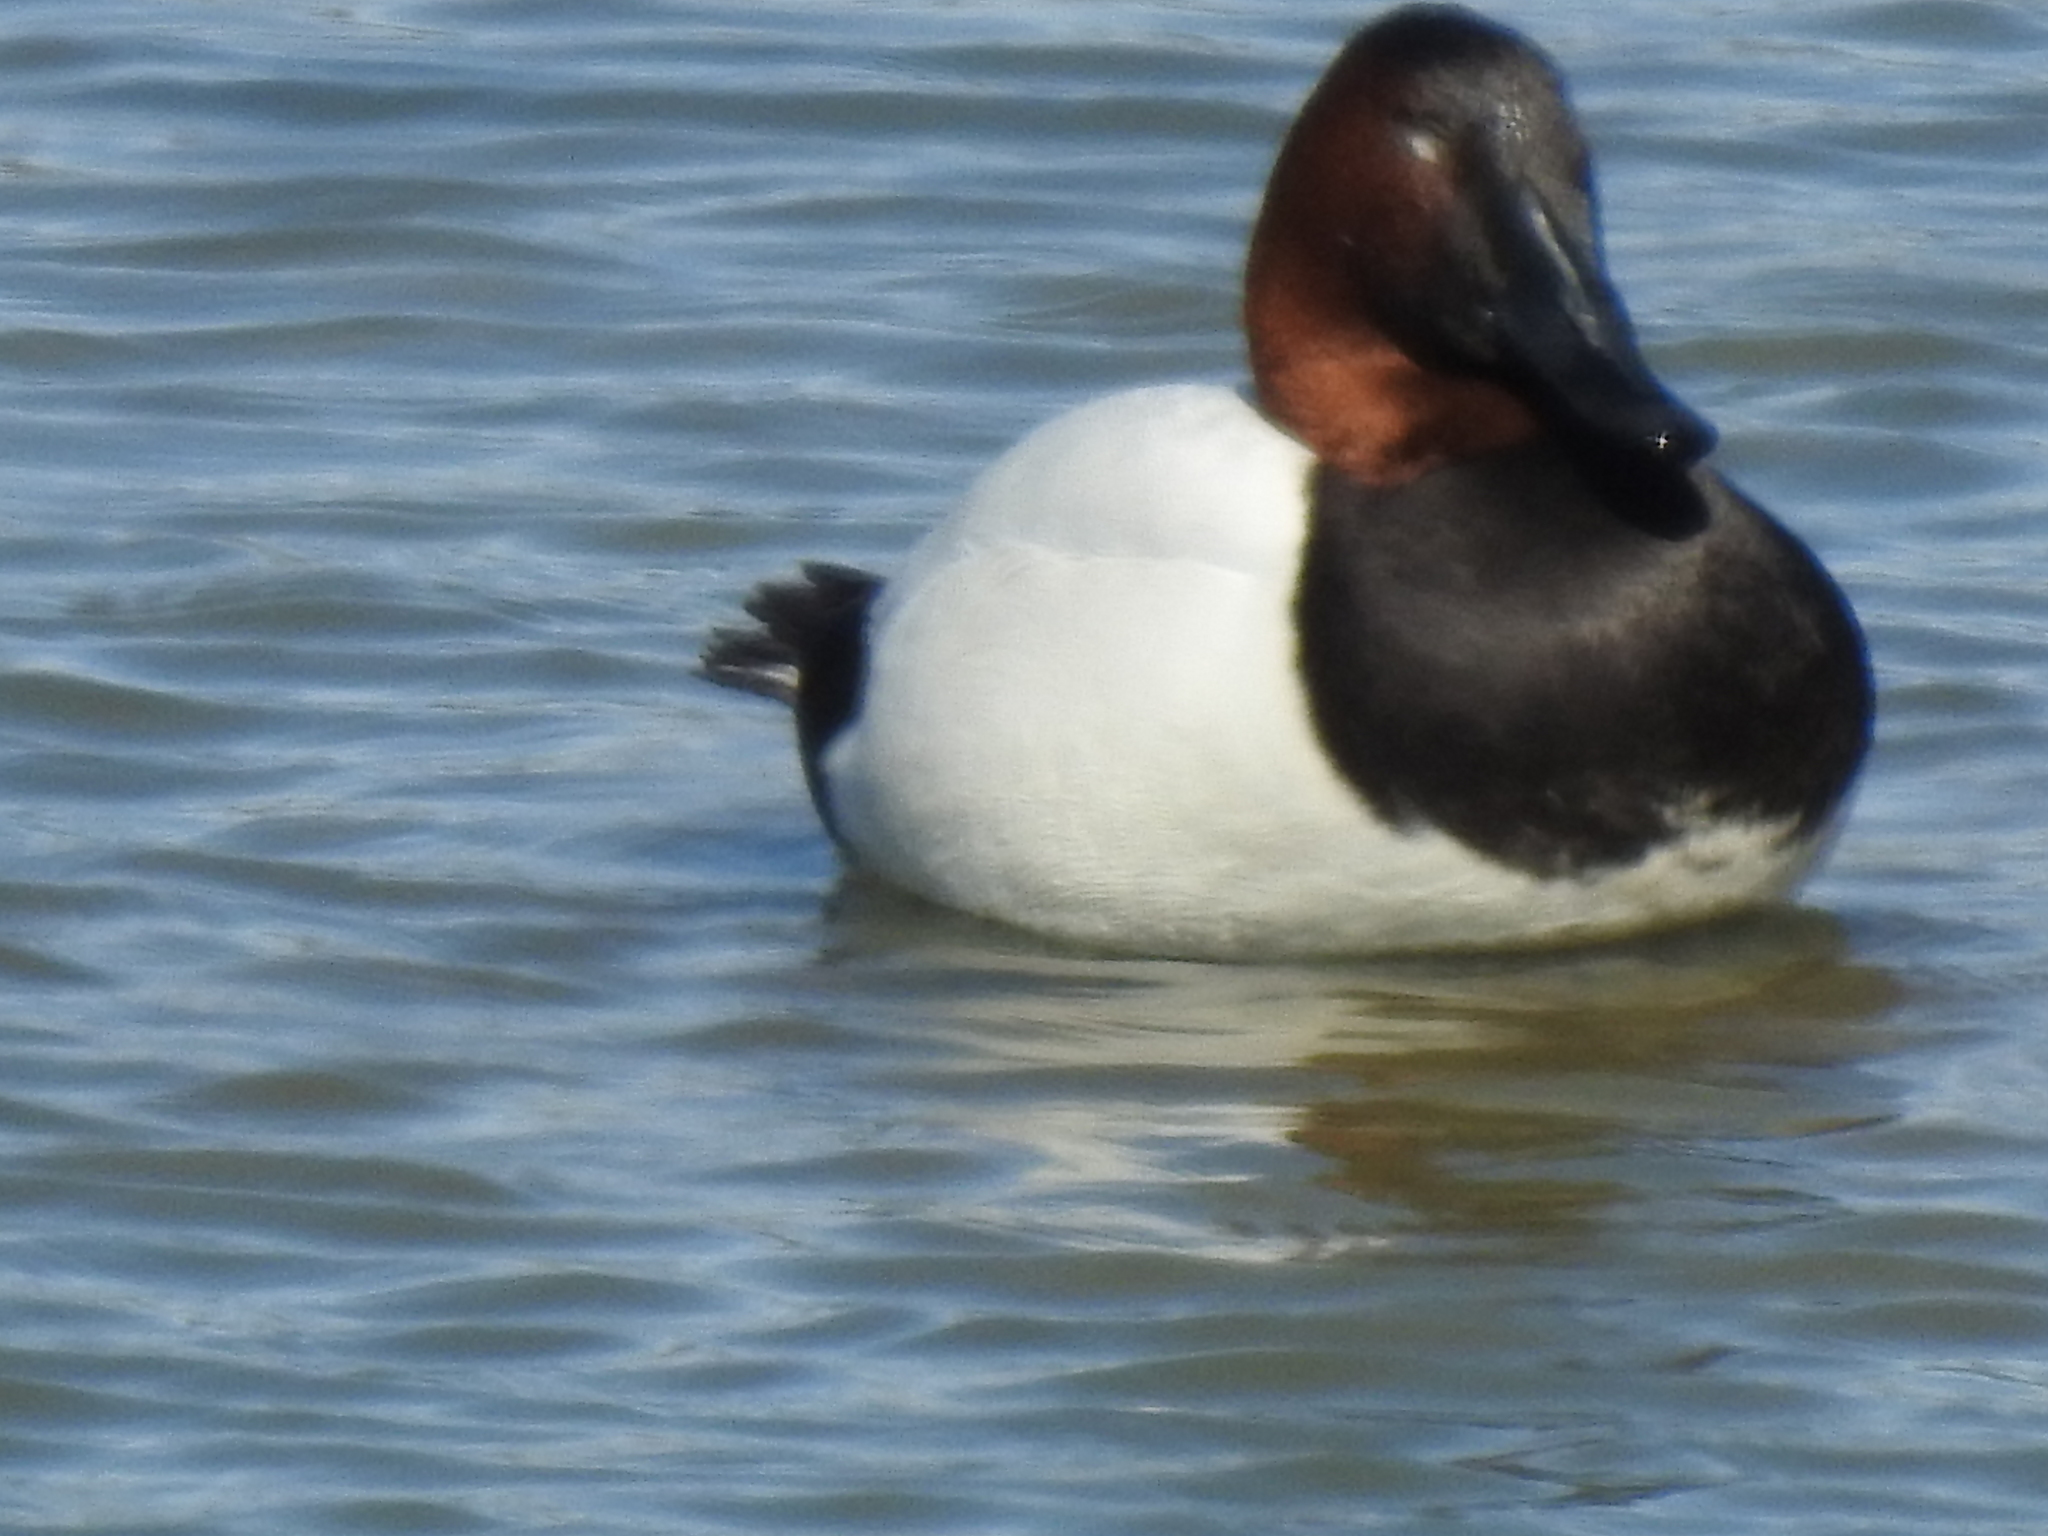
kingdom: Animalia
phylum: Chordata
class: Aves
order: Anseriformes
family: Anatidae
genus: Aythya
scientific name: Aythya valisineria
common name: Canvasback
